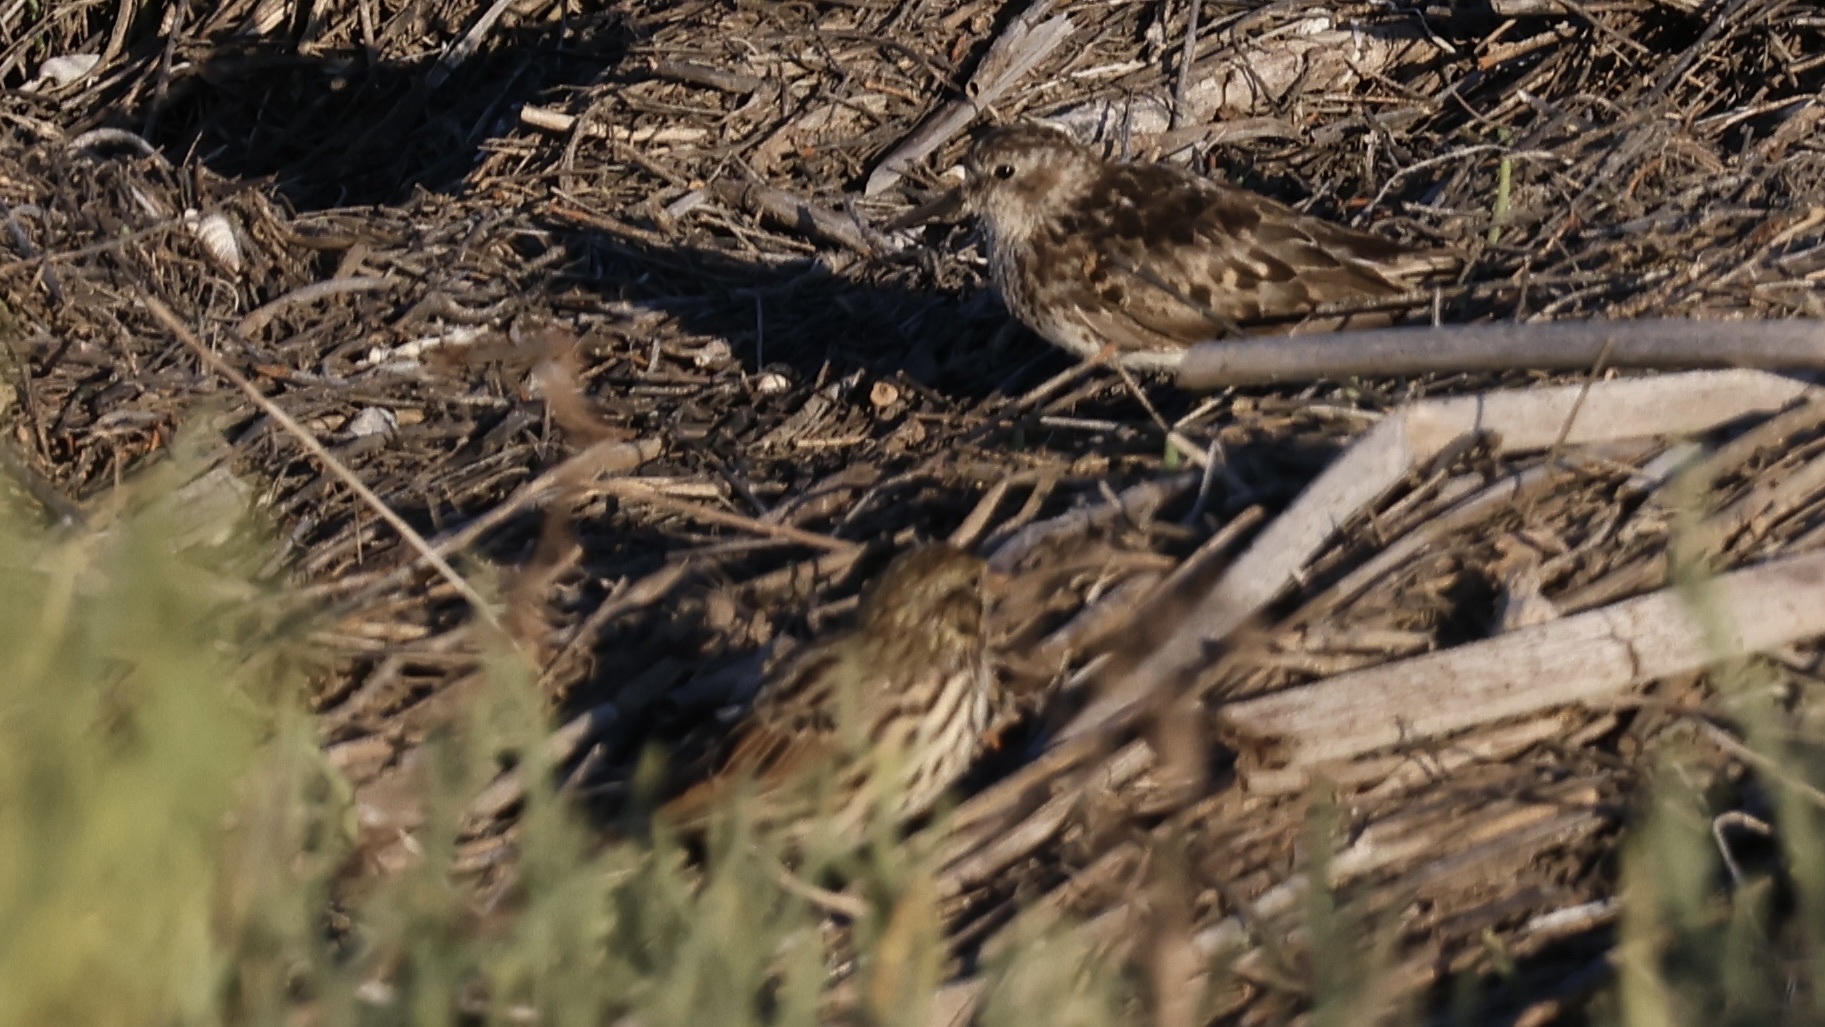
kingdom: Animalia
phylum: Chordata
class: Aves
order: Charadriiformes
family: Scolopacidae
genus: Calidris
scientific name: Calidris minutilla
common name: Least sandpiper
